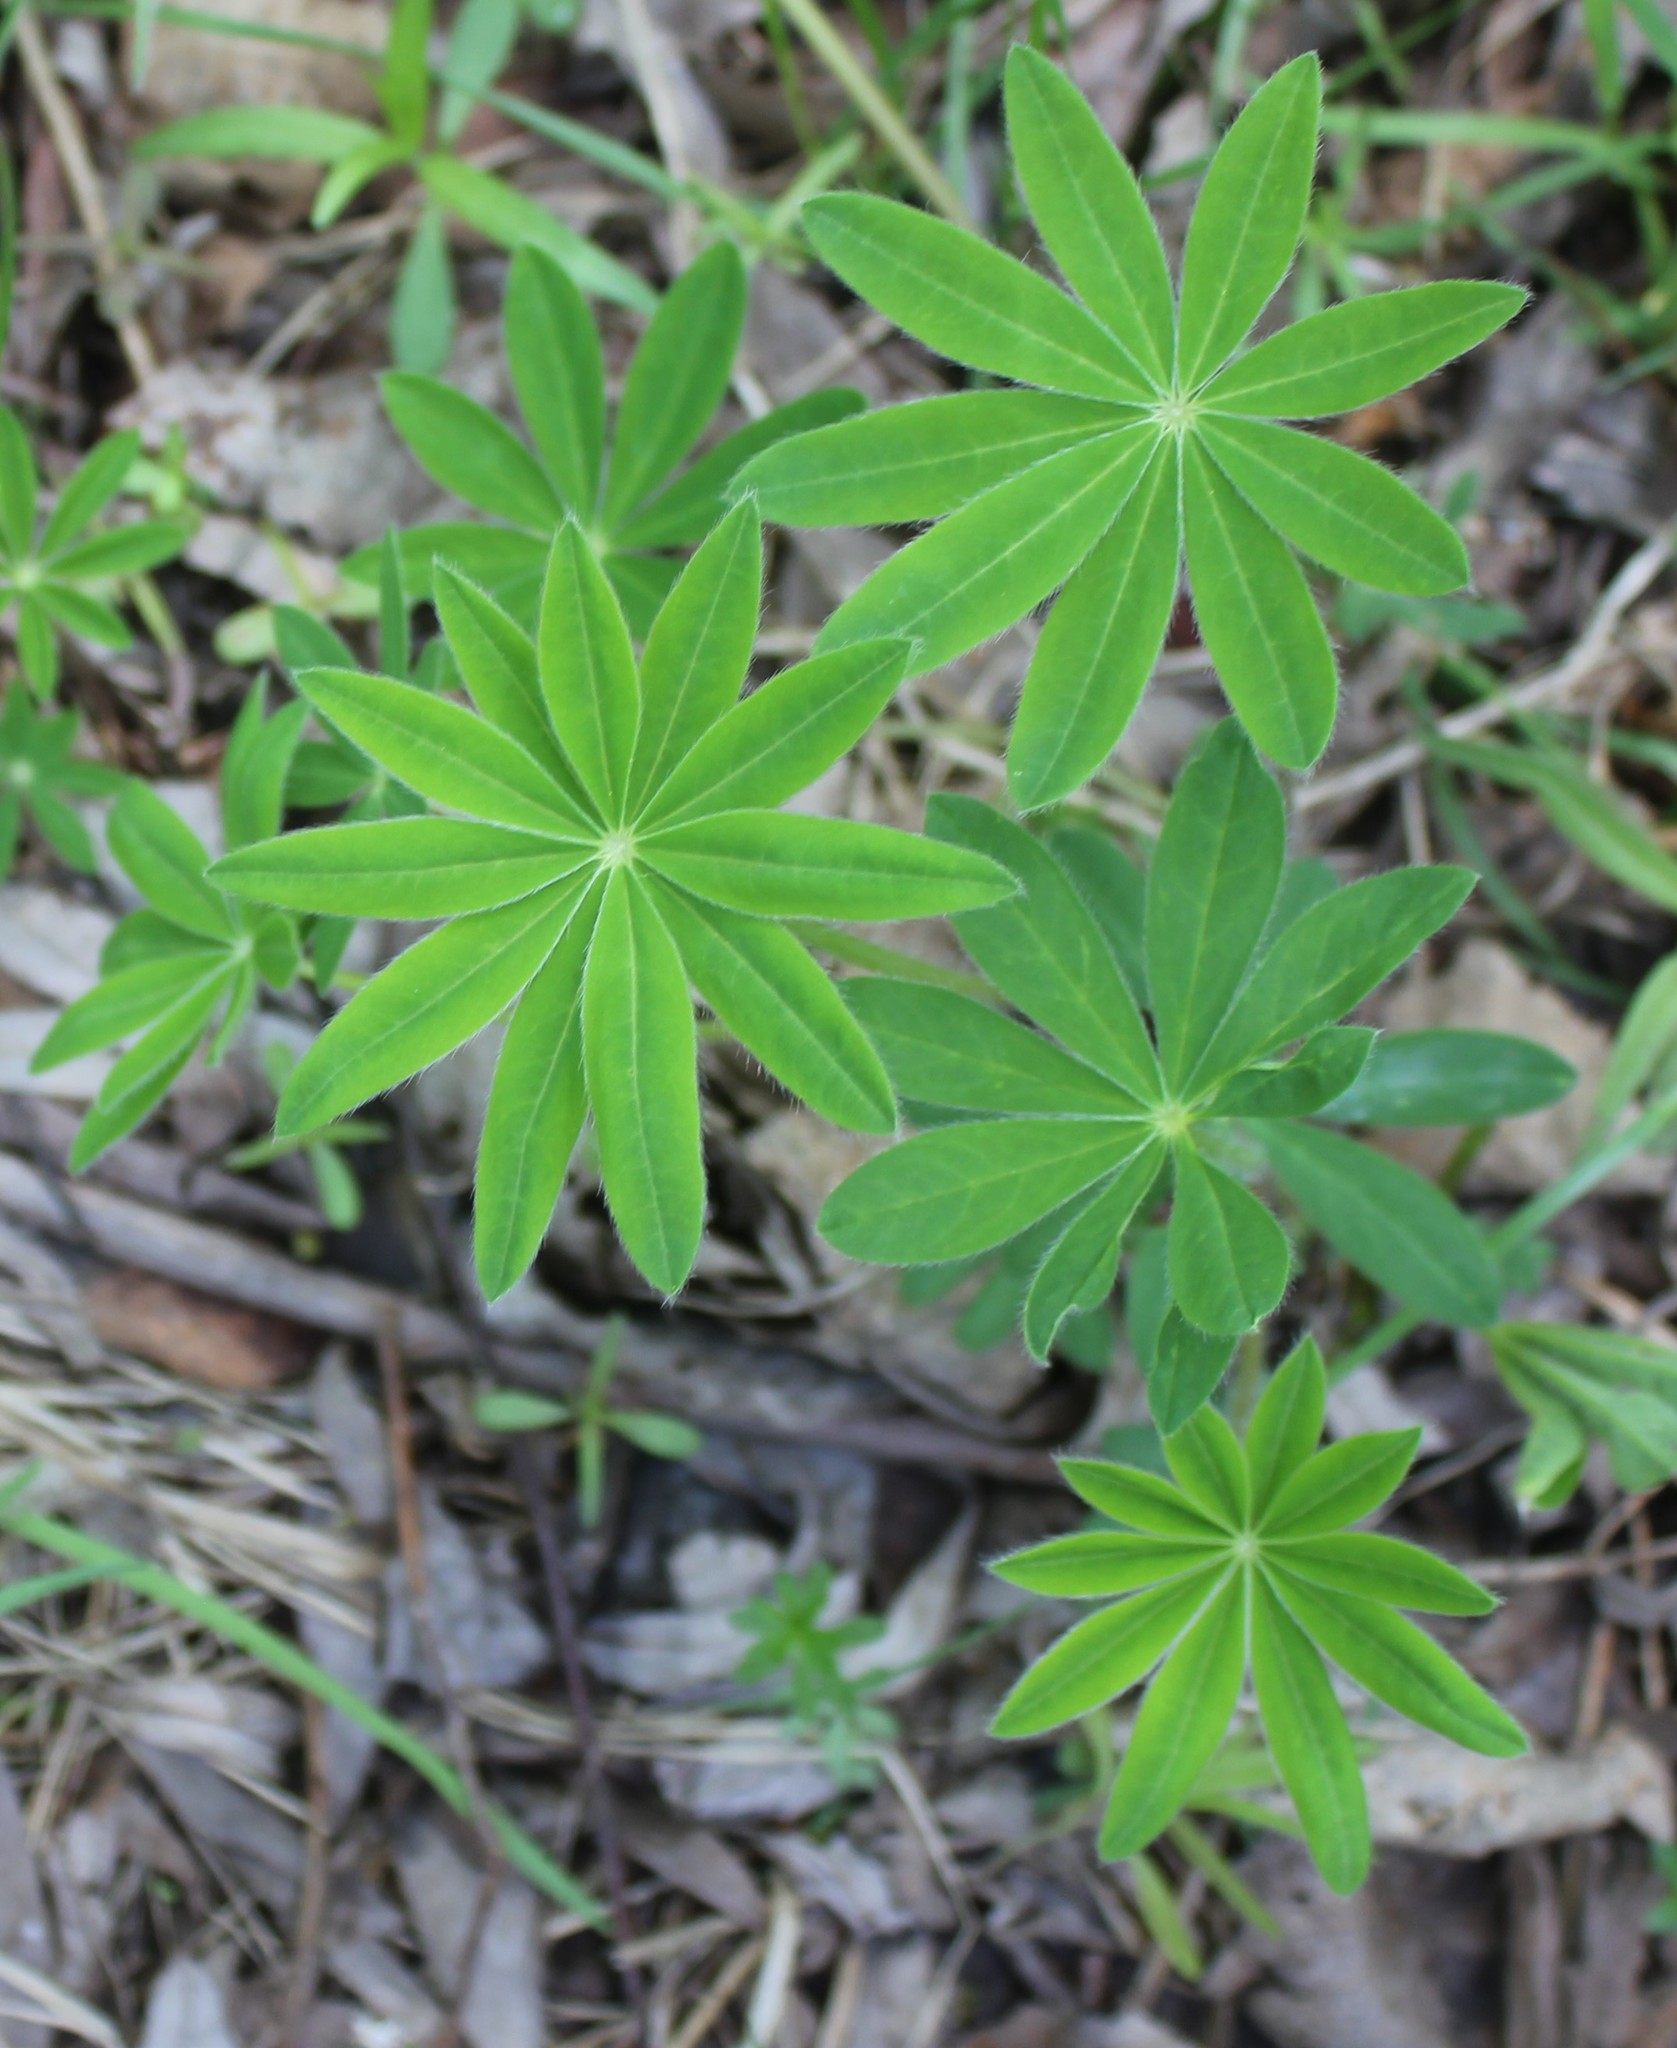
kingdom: Plantae
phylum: Tracheophyta
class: Magnoliopsida
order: Fabales
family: Fabaceae
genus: Lupinus
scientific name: Lupinus polyphyllus
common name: Garden lupin
